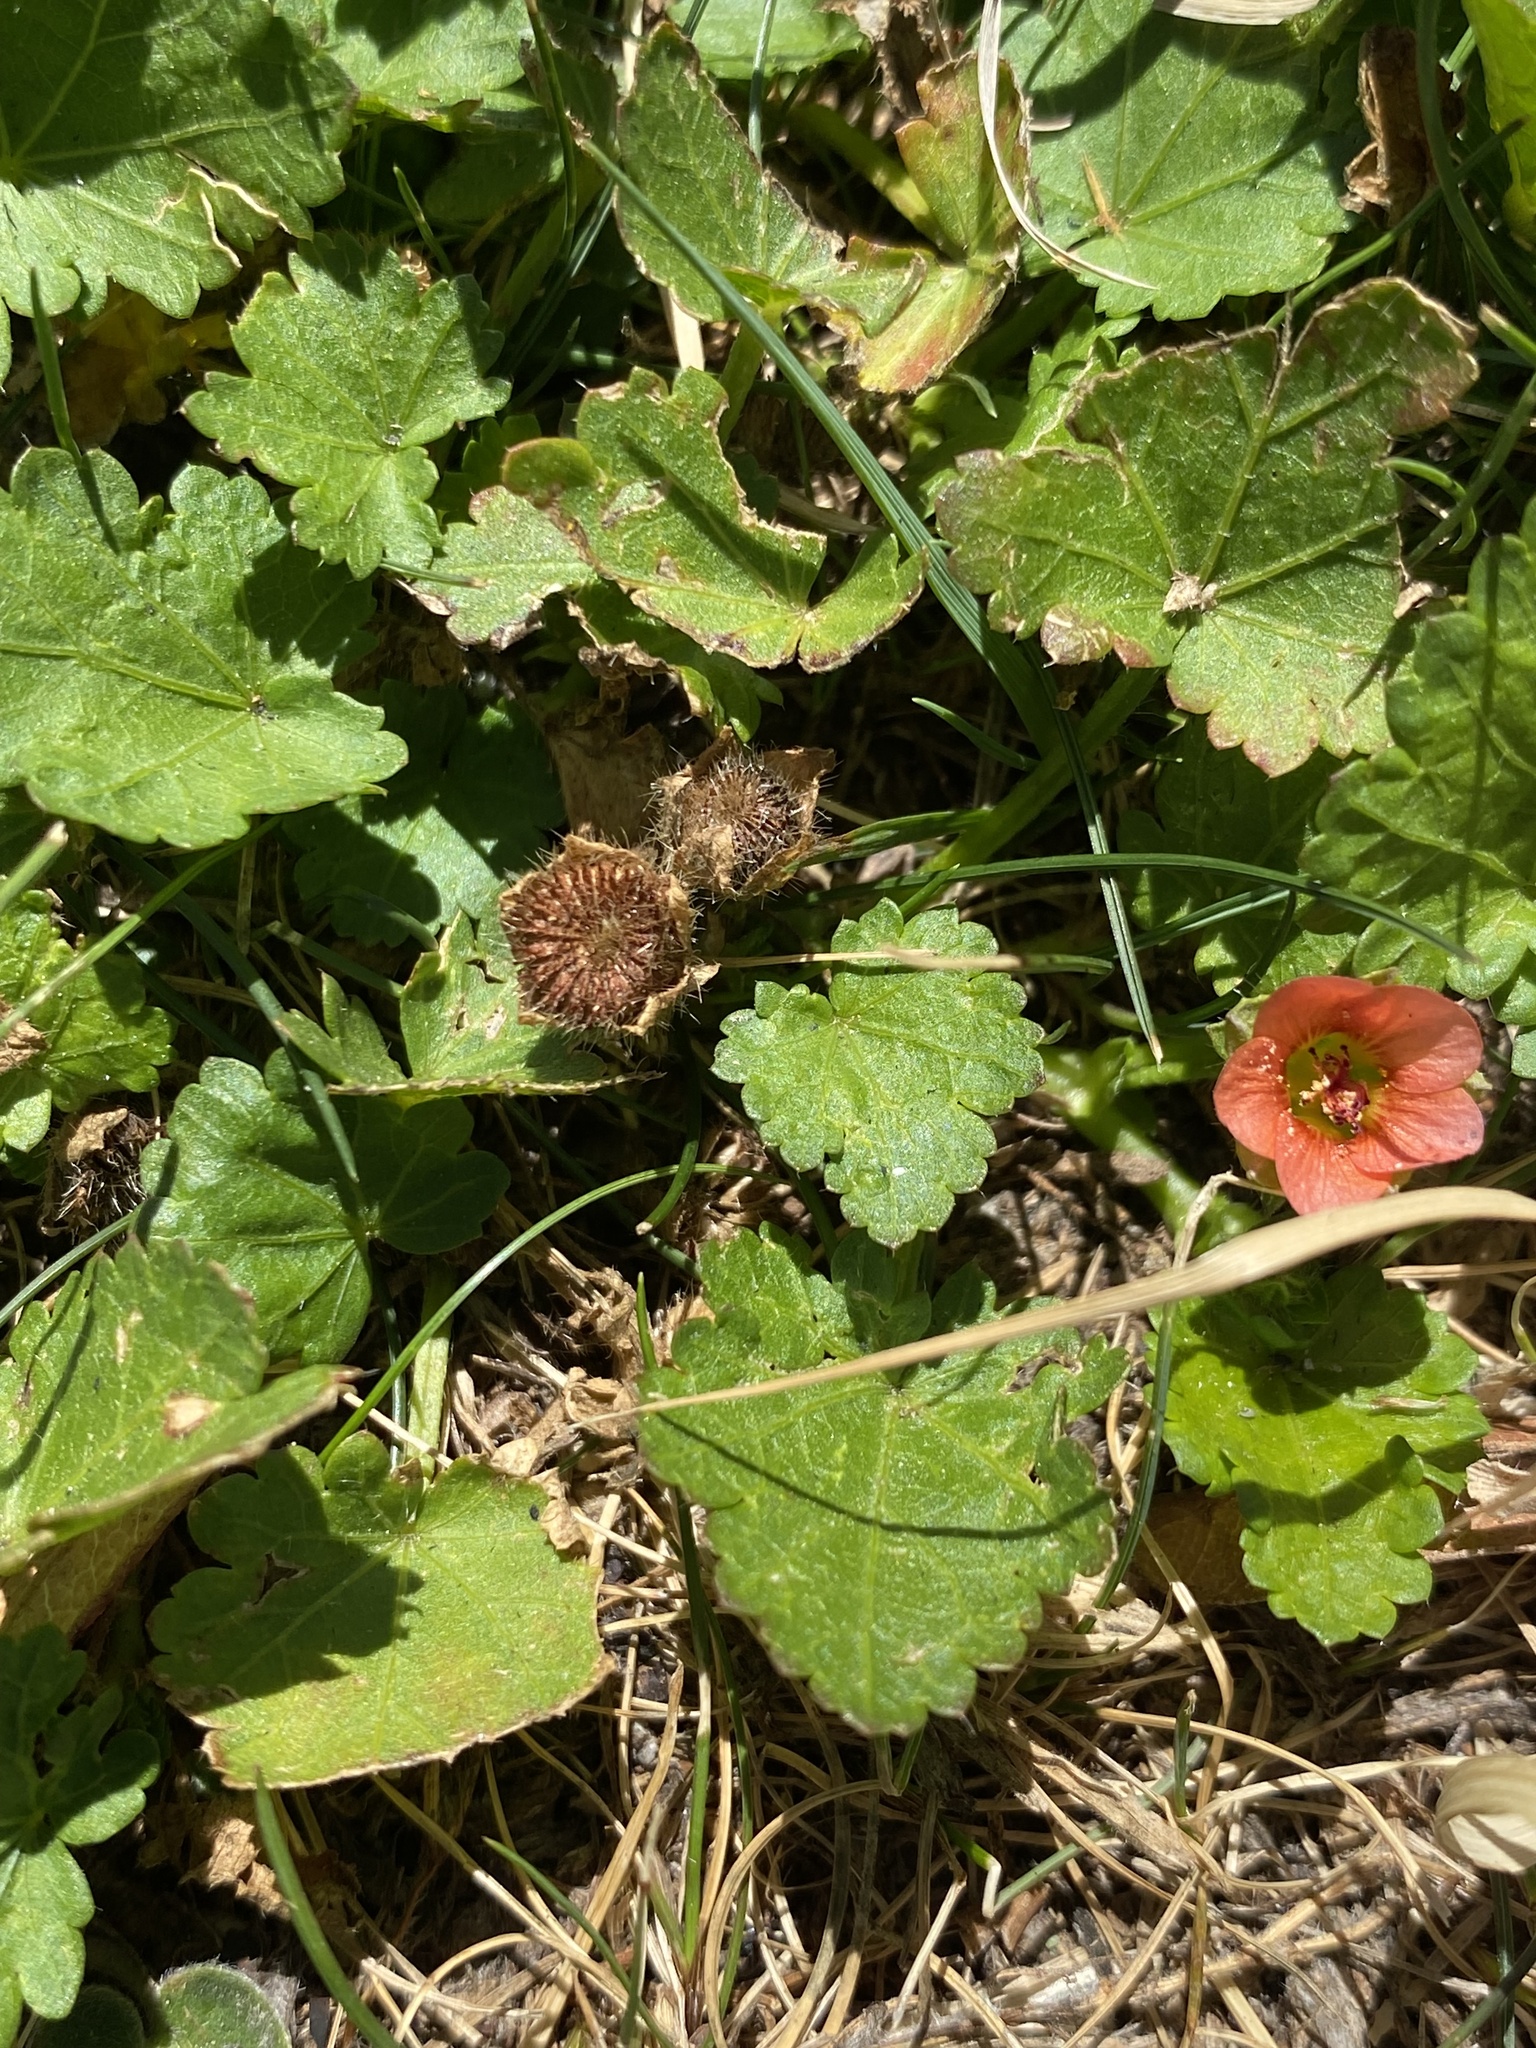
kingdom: Plantae
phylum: Tracheophyta
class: Magnoliopsida
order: Malvales
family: Malvaceae
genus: Modiola
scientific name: Modiola caroliniana
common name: Carolina bristlemallow
